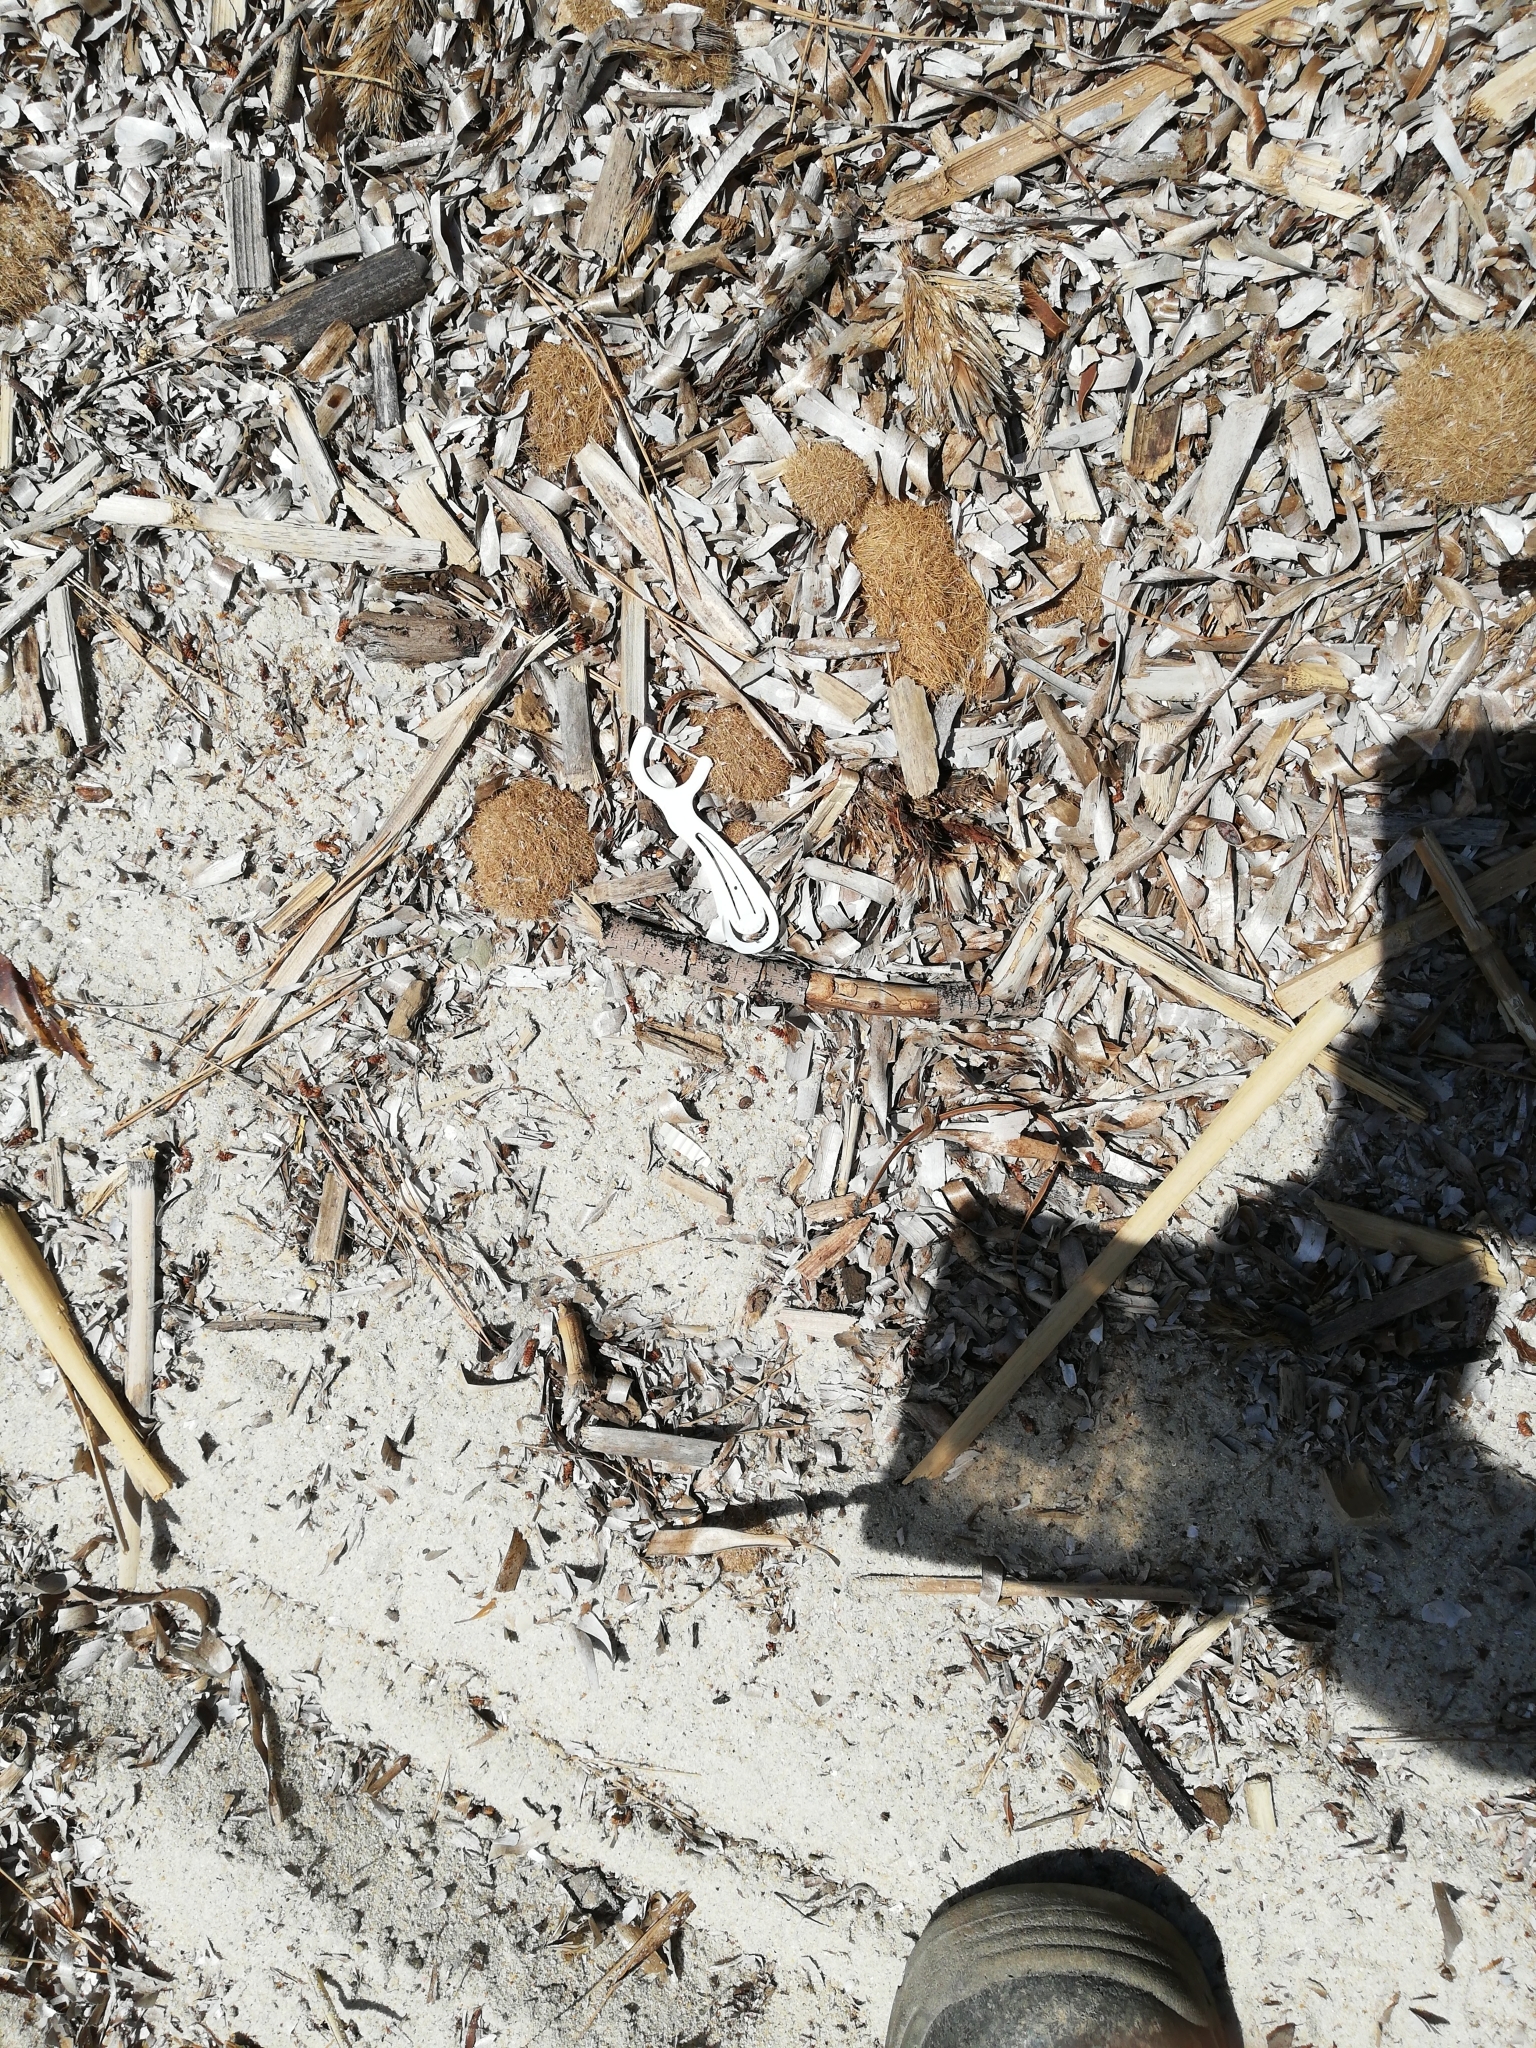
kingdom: Plantae
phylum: Tracheophyta
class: Liliopsida
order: Alismatales
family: Posidoniaceae
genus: Posidonia
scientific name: Posidonia oceanica
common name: Mediterranean tapeweed
